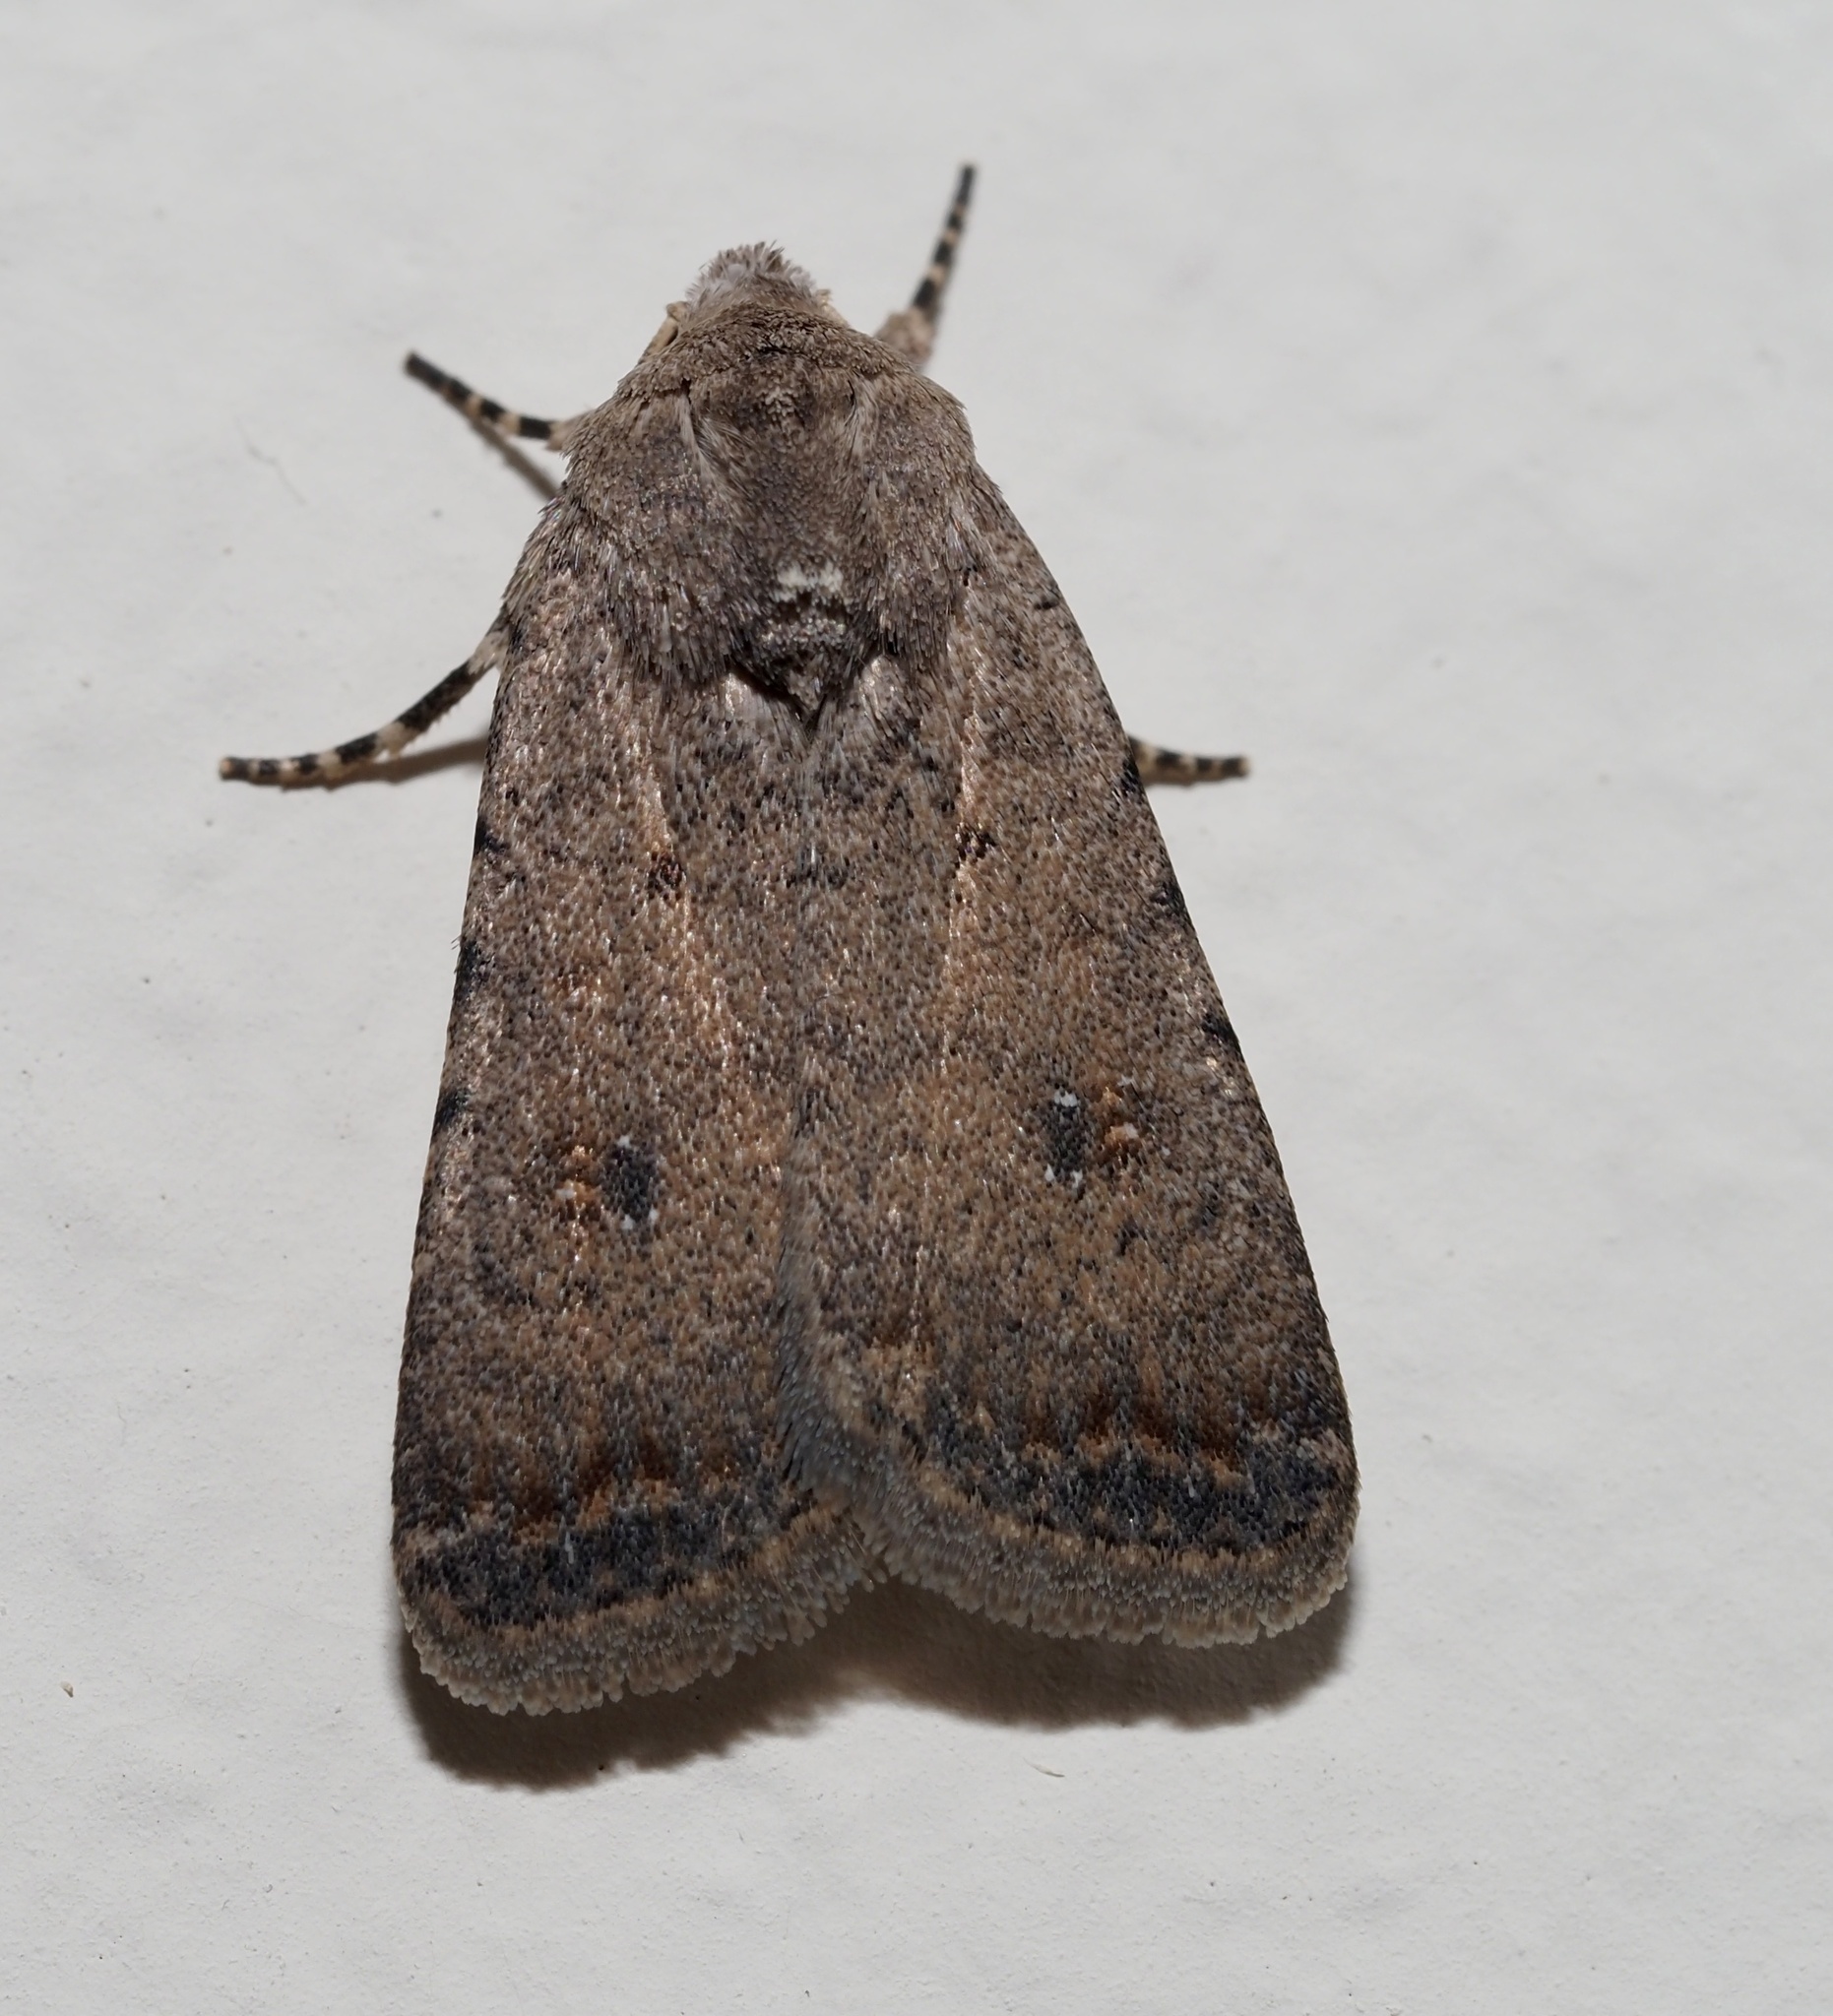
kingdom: Animalia
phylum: Arthropoda
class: Insecta
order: Lepidoptera
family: Noctuidae
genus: Caradrina
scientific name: Caradrina clavipalpis
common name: Pale mottled willow
